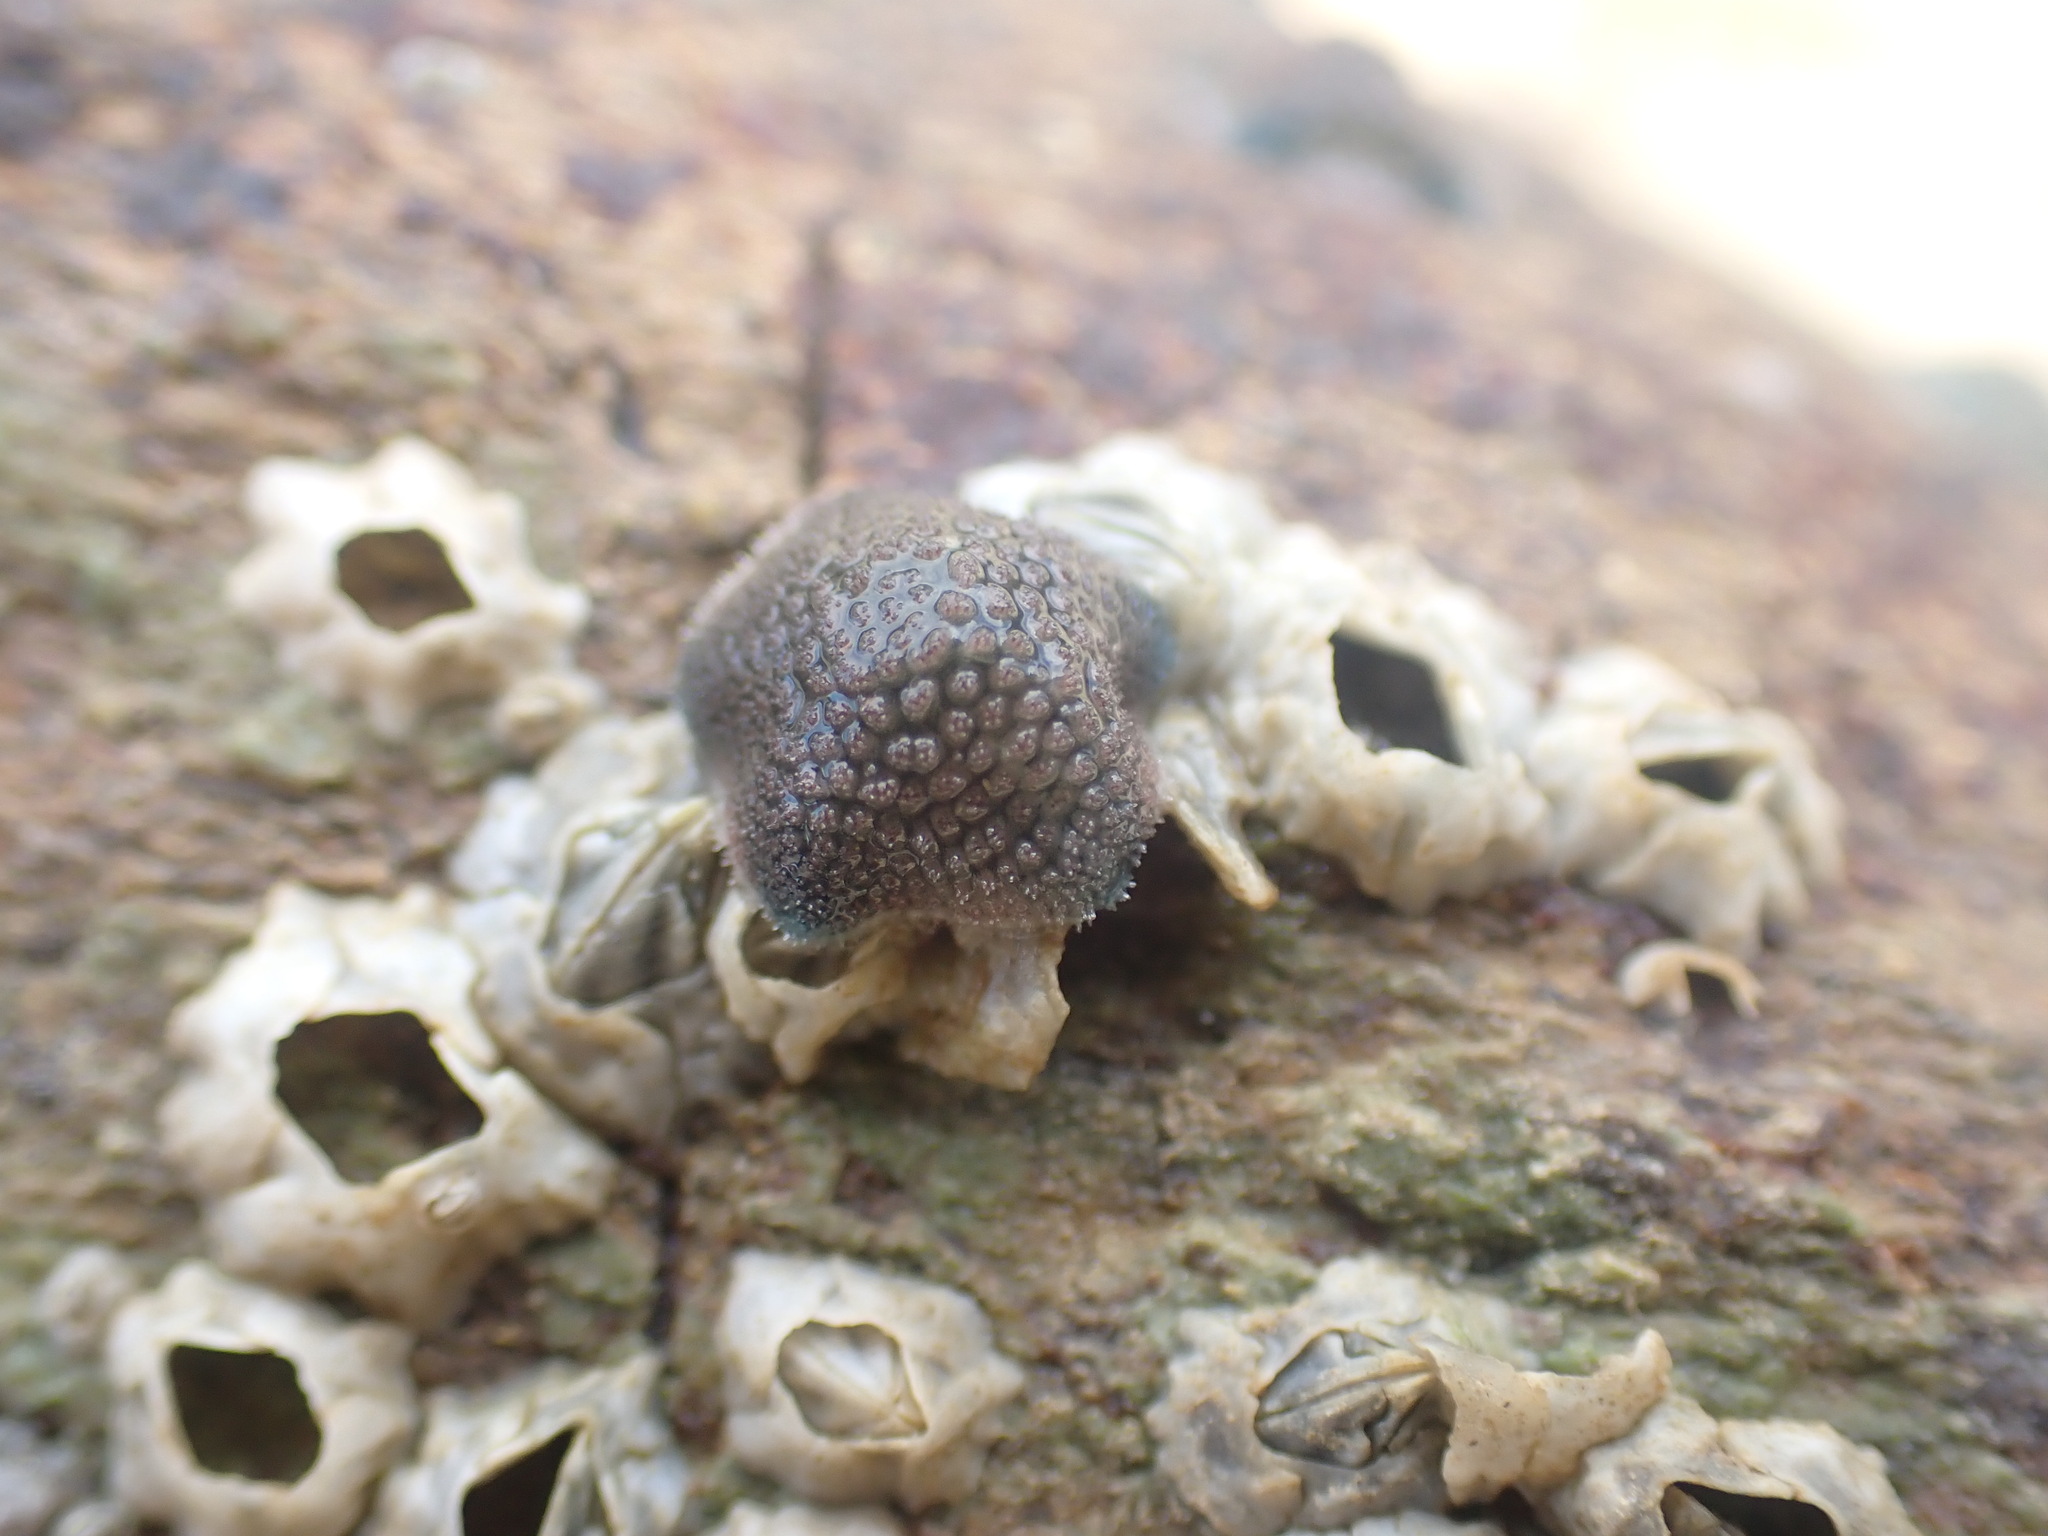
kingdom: Animalia
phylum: Echinodermata
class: Asteroidea
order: Valvatida
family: Asterinidae
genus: Patiriella
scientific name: Patiriella regularis
